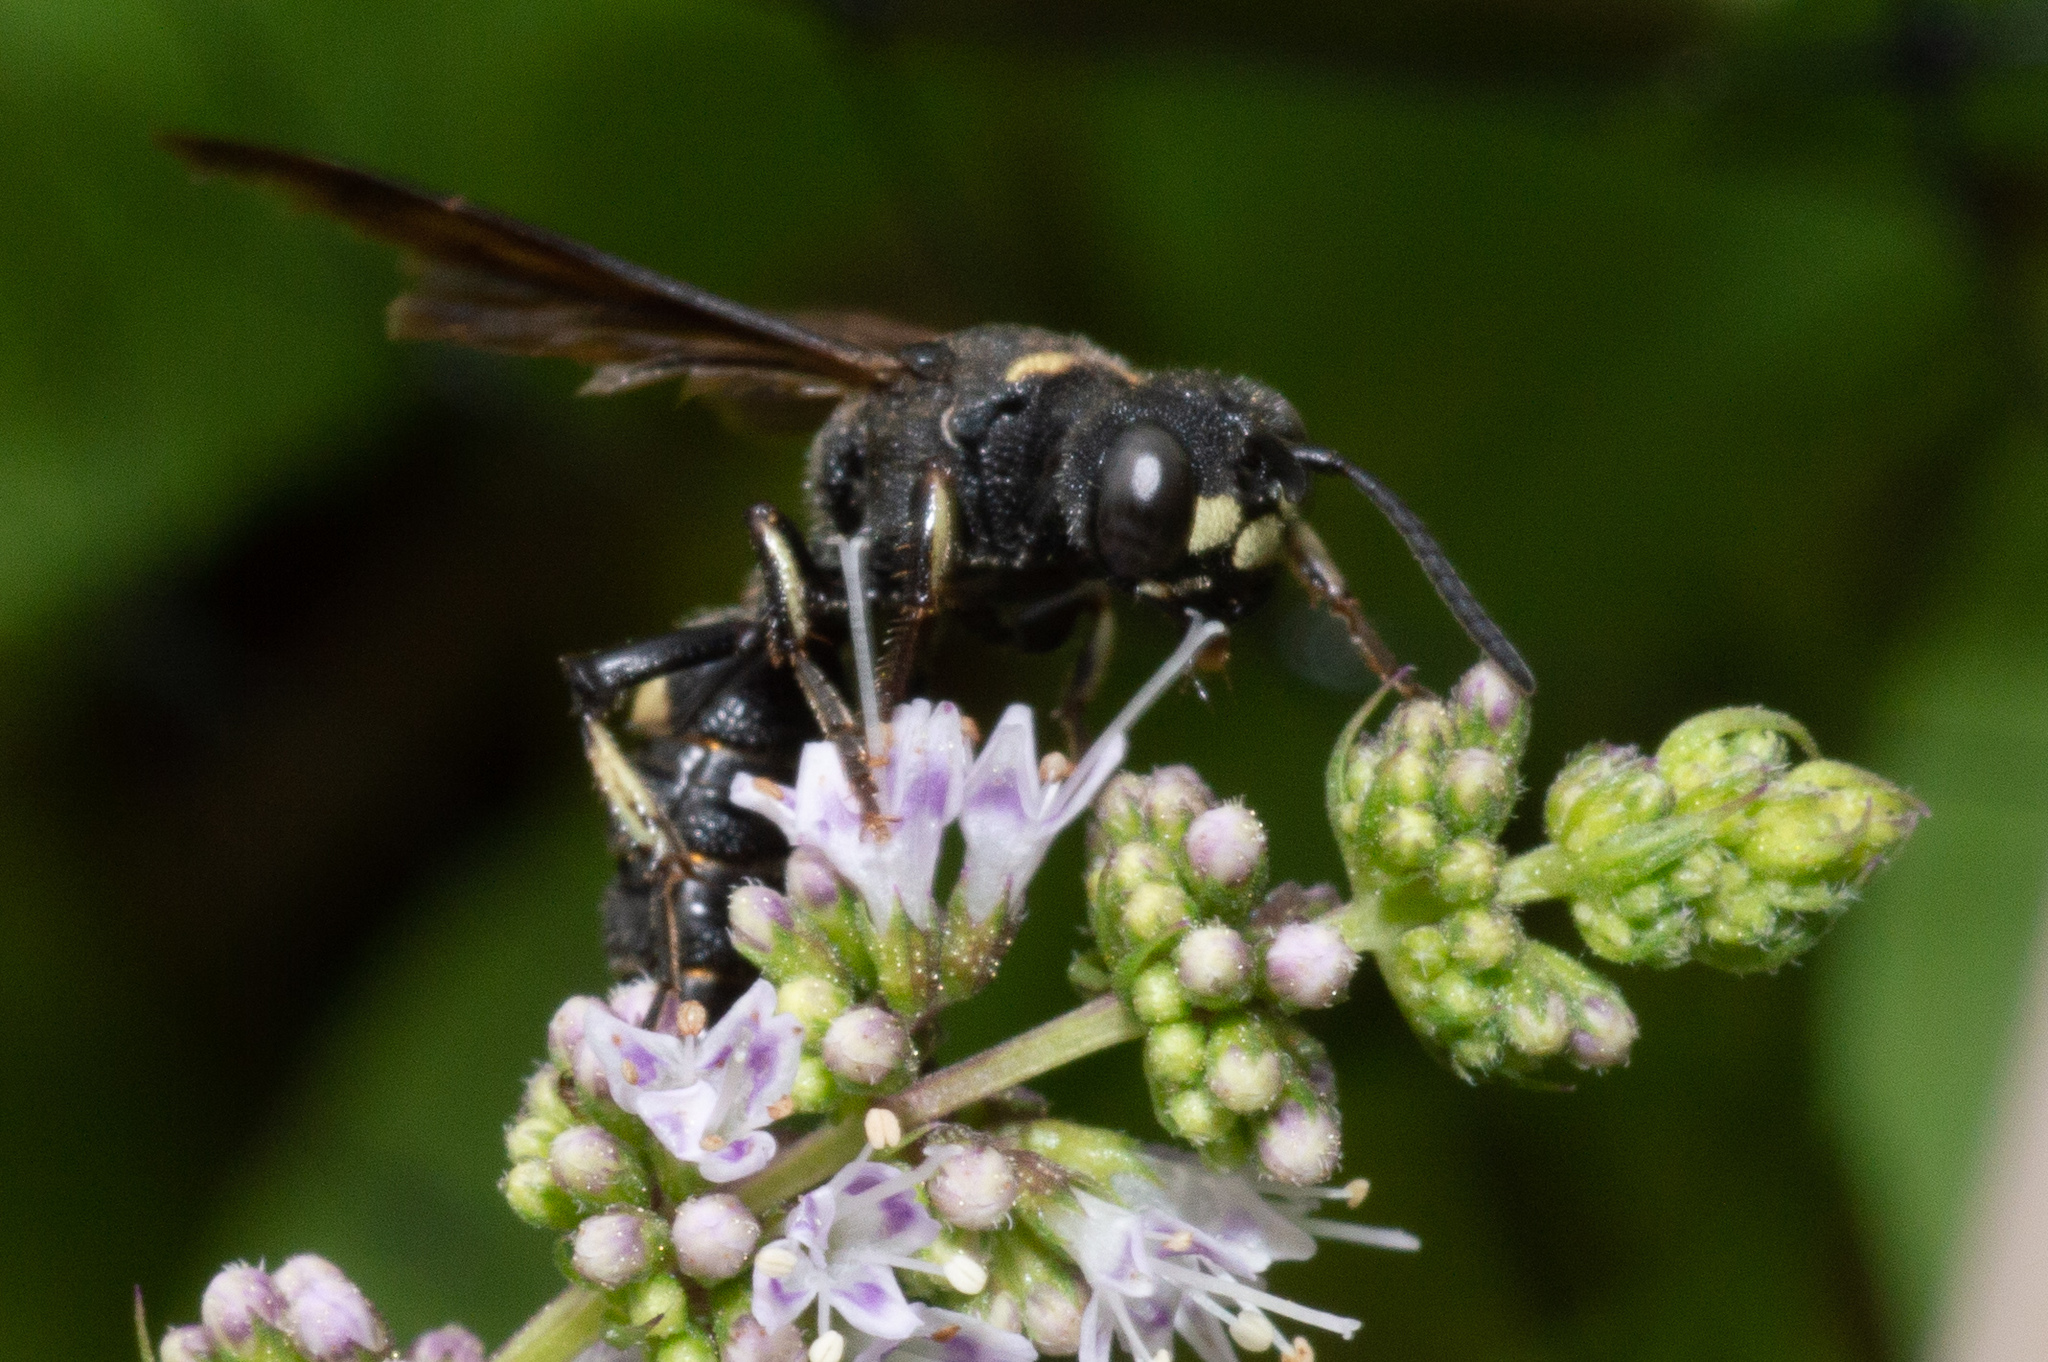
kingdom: Animalia
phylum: Arthropoda
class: Insecta
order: Hymenoptera
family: Crabronidae
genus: Cerceris
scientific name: Cerceris fumipennis
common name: Smokey-winged beetle bandit wasp
